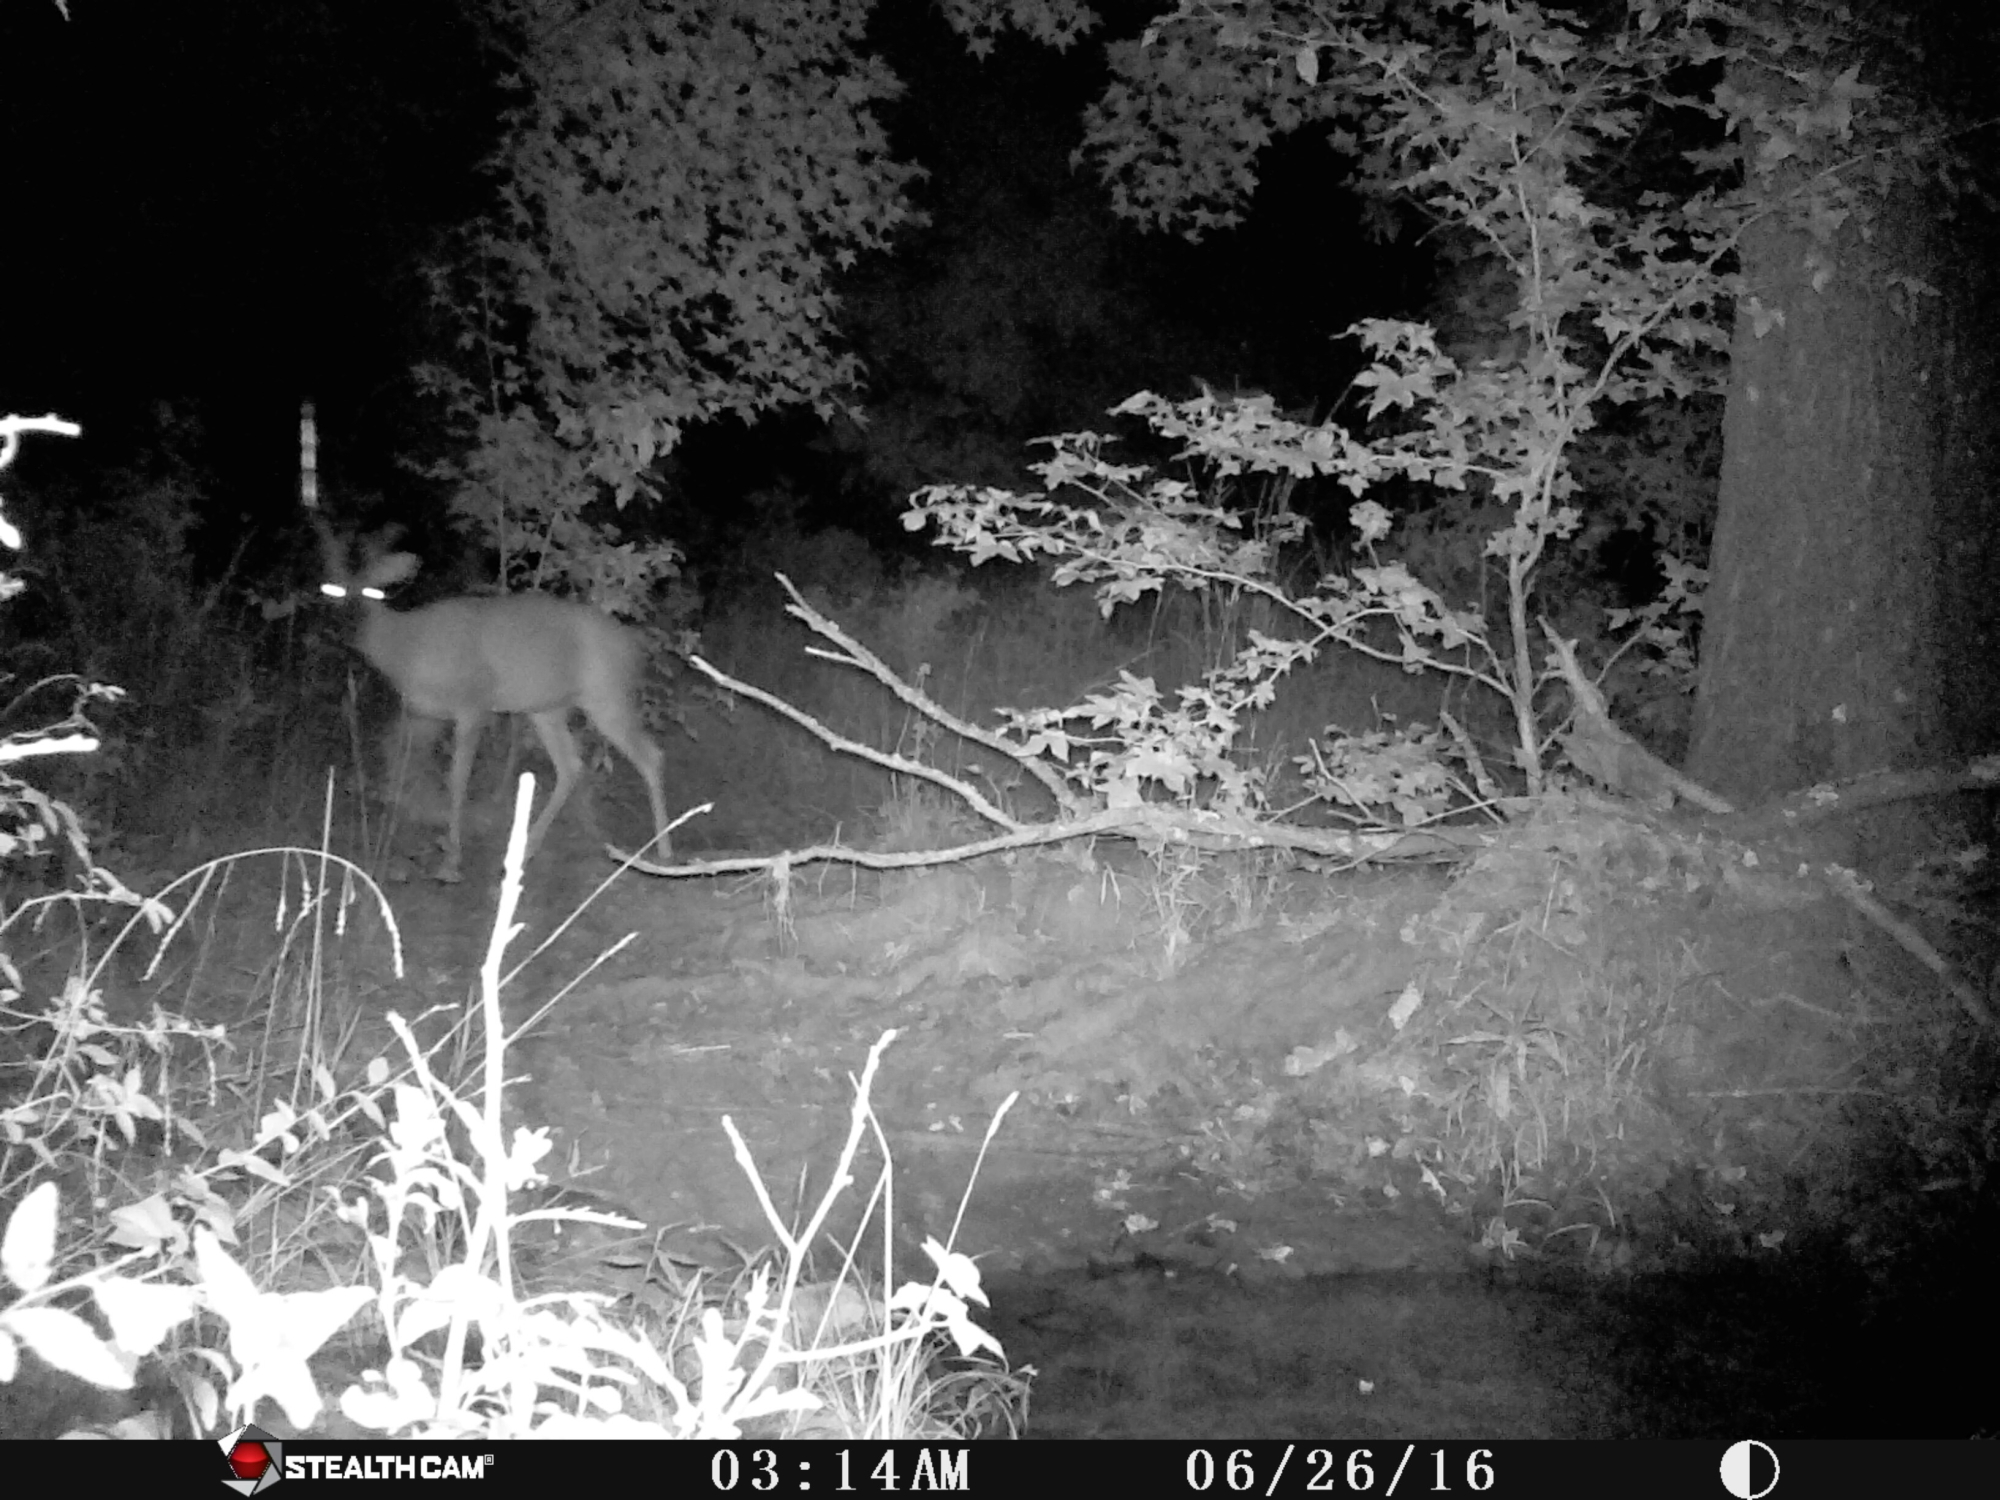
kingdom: Animalia
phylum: Chordata
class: Mammalia
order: Artiodactyla
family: Cervidae
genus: Odocoileus
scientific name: Odocoileus virginianus
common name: White-tailed deer
